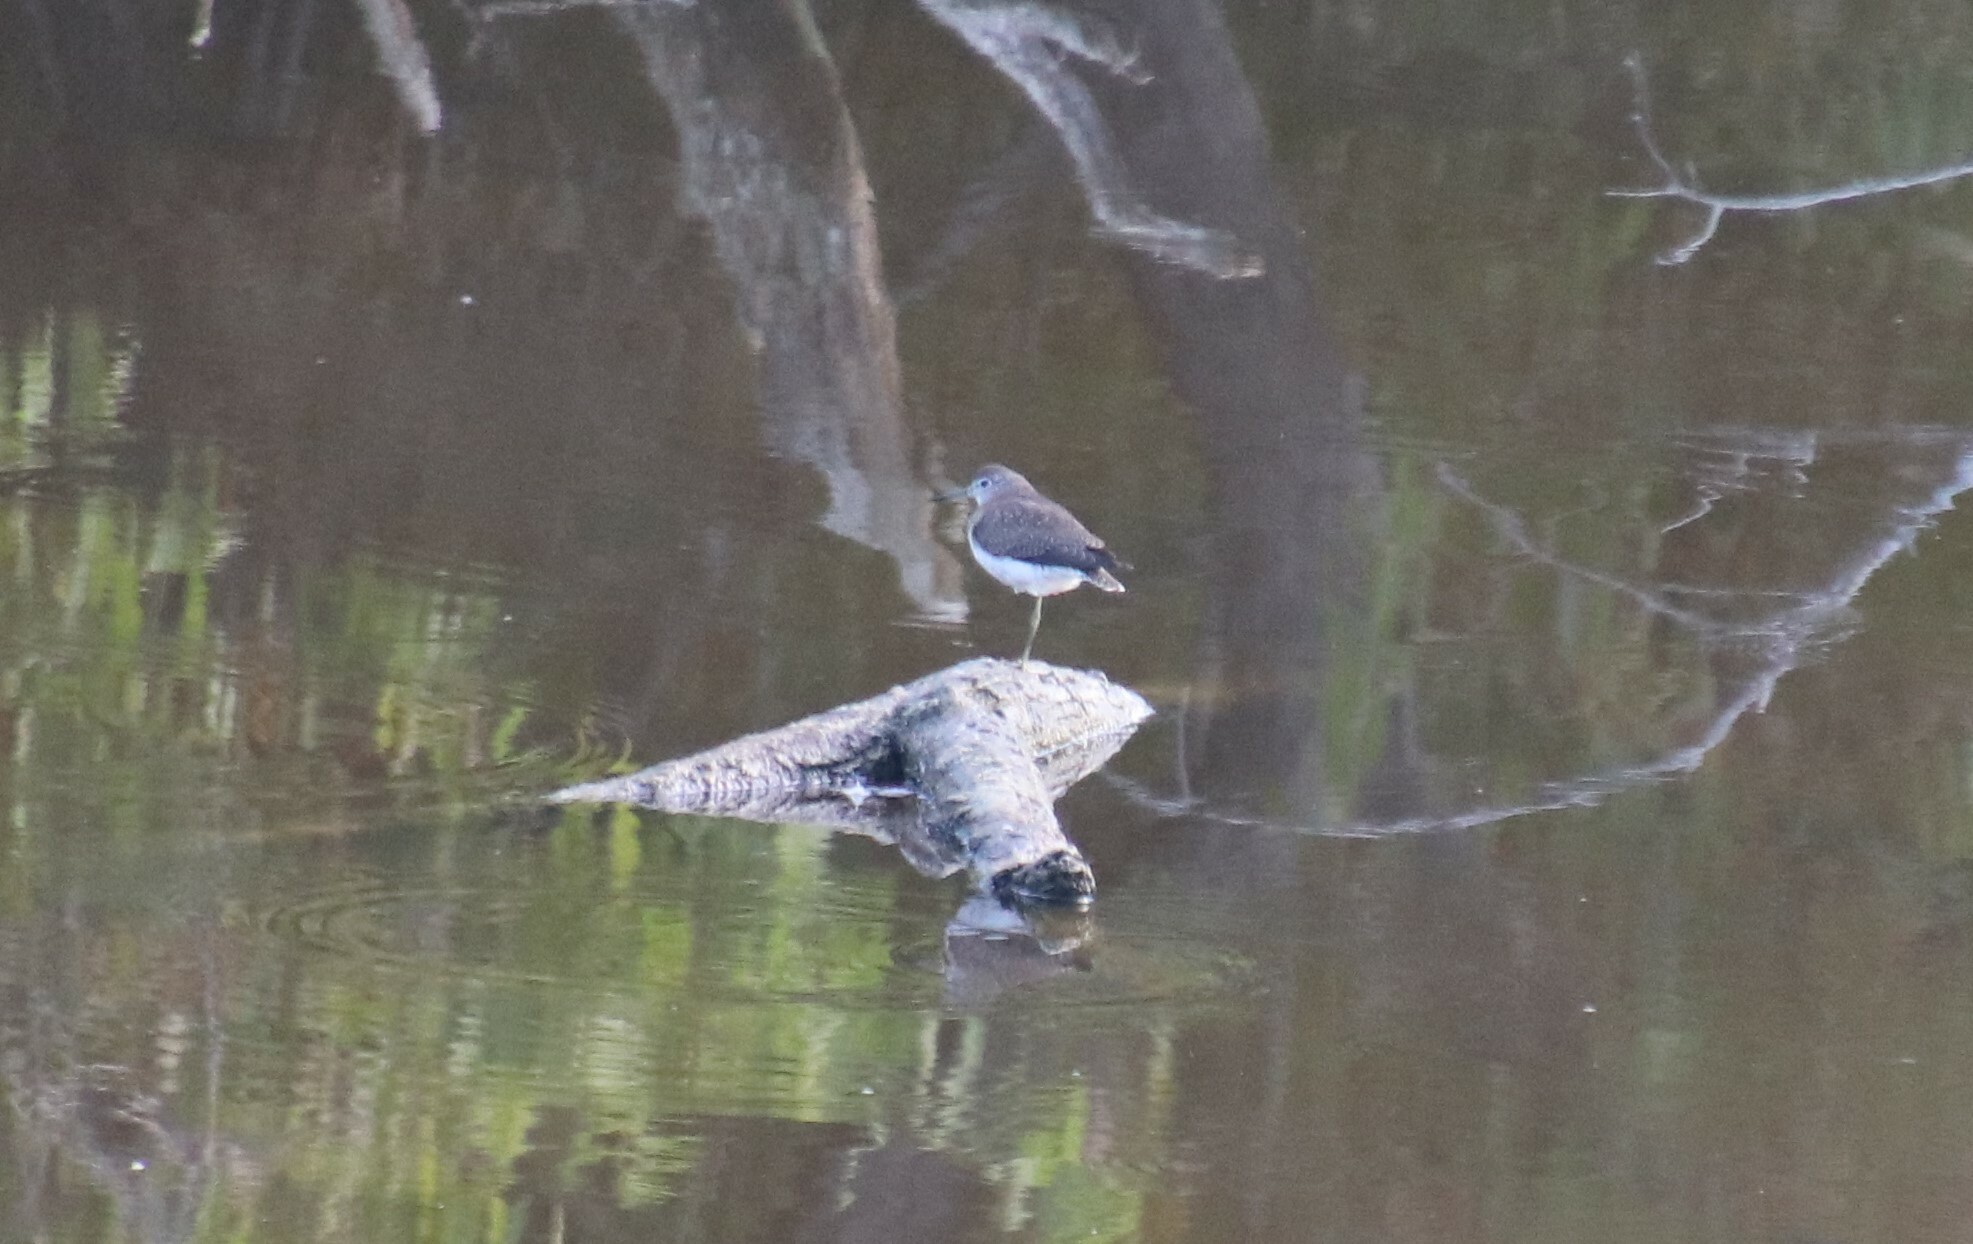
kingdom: Animalia
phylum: Chordata
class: Aves
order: Charadriiformes
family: Scolopacidae
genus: Tringa
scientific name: Tringa solitaria
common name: Solitary sandpiper
